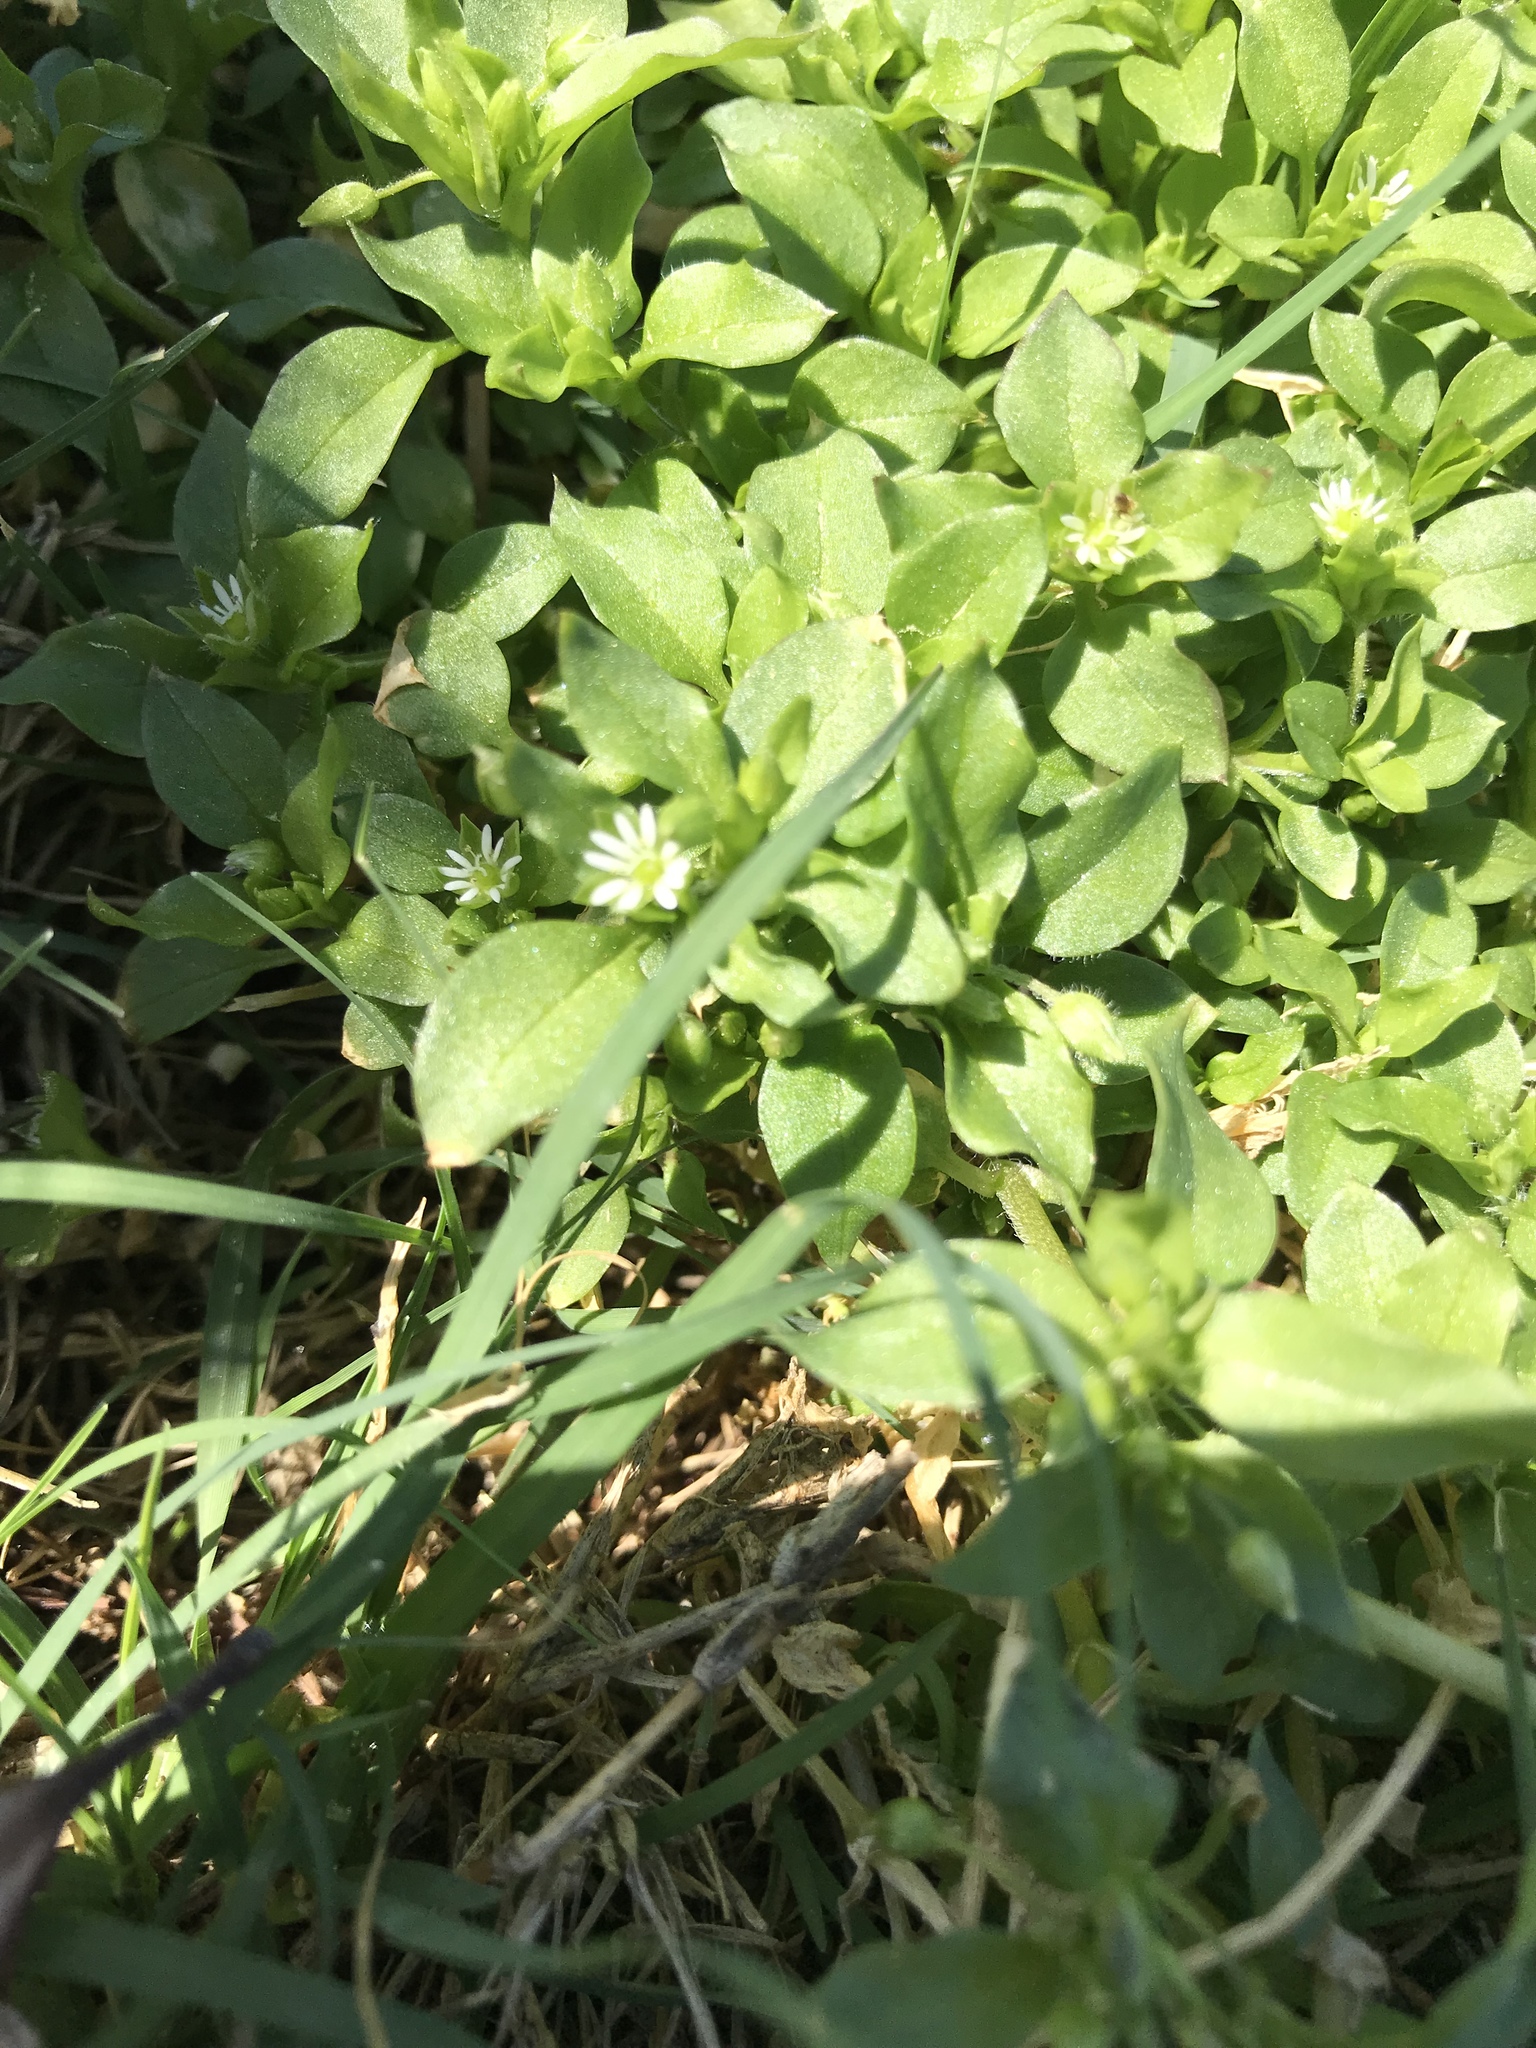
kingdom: Plantae
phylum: Tracheophyta
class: Magnoliopsida
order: Caryophyllales
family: Caryophyllaceae
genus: Stellaria
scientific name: Stellaria media
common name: Common chickweed
